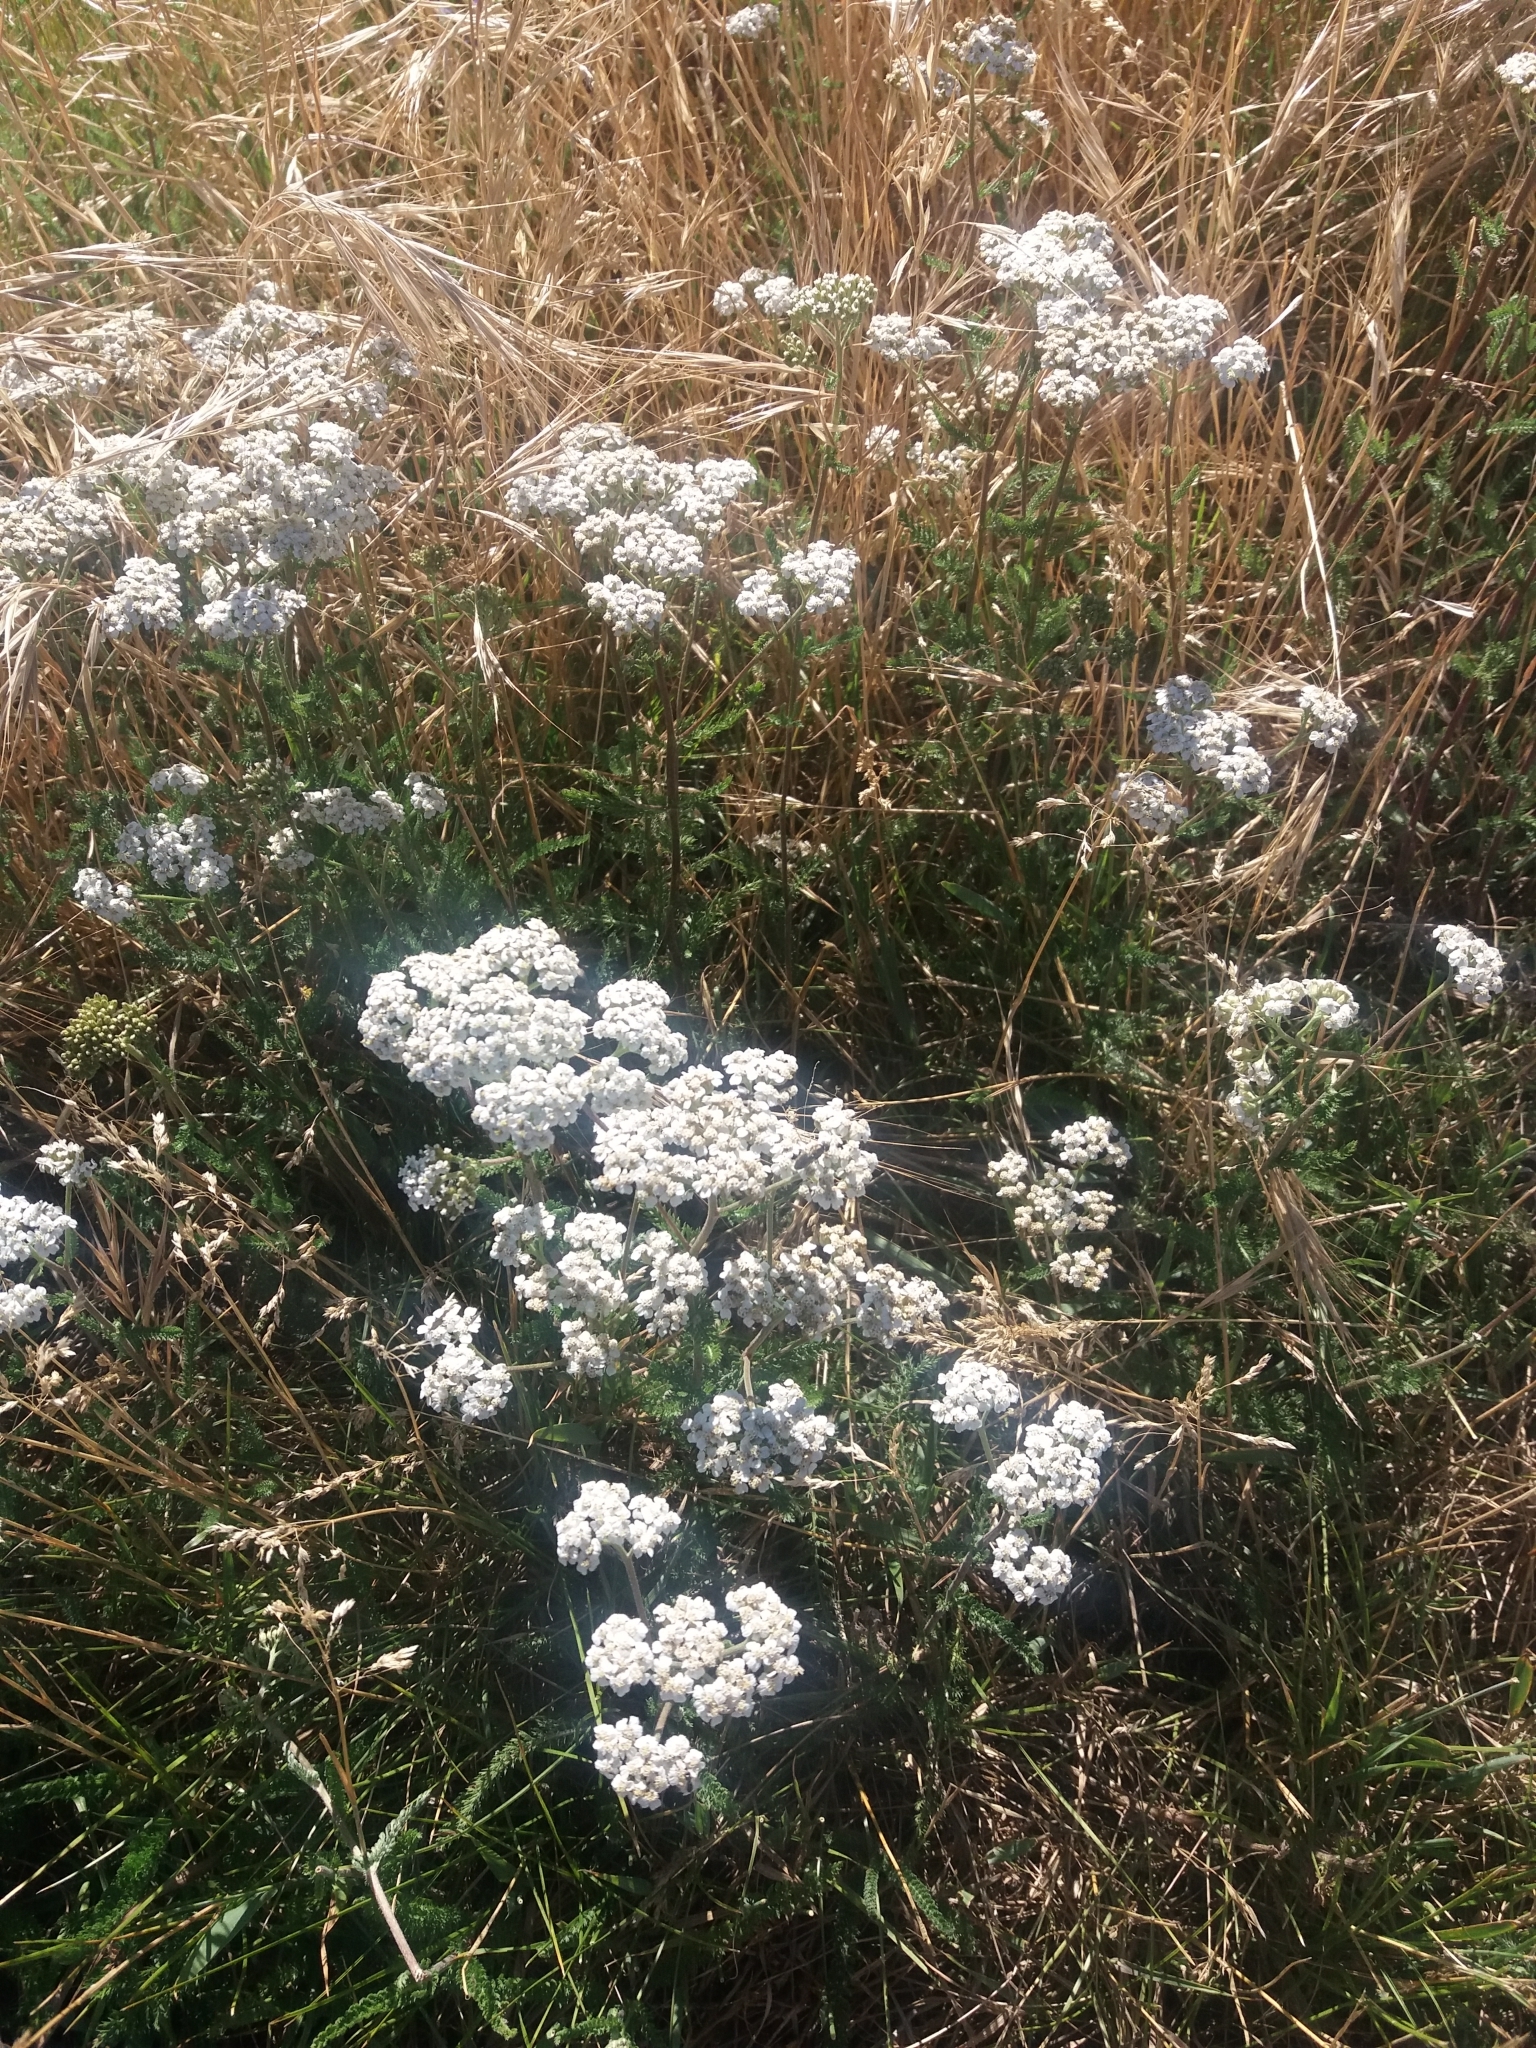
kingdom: Plantae
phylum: Tracheophyta
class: Magnoliopsida
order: Asterales
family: Asteraceae
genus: Achillea
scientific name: Achillea millefolium
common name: Yarrow
